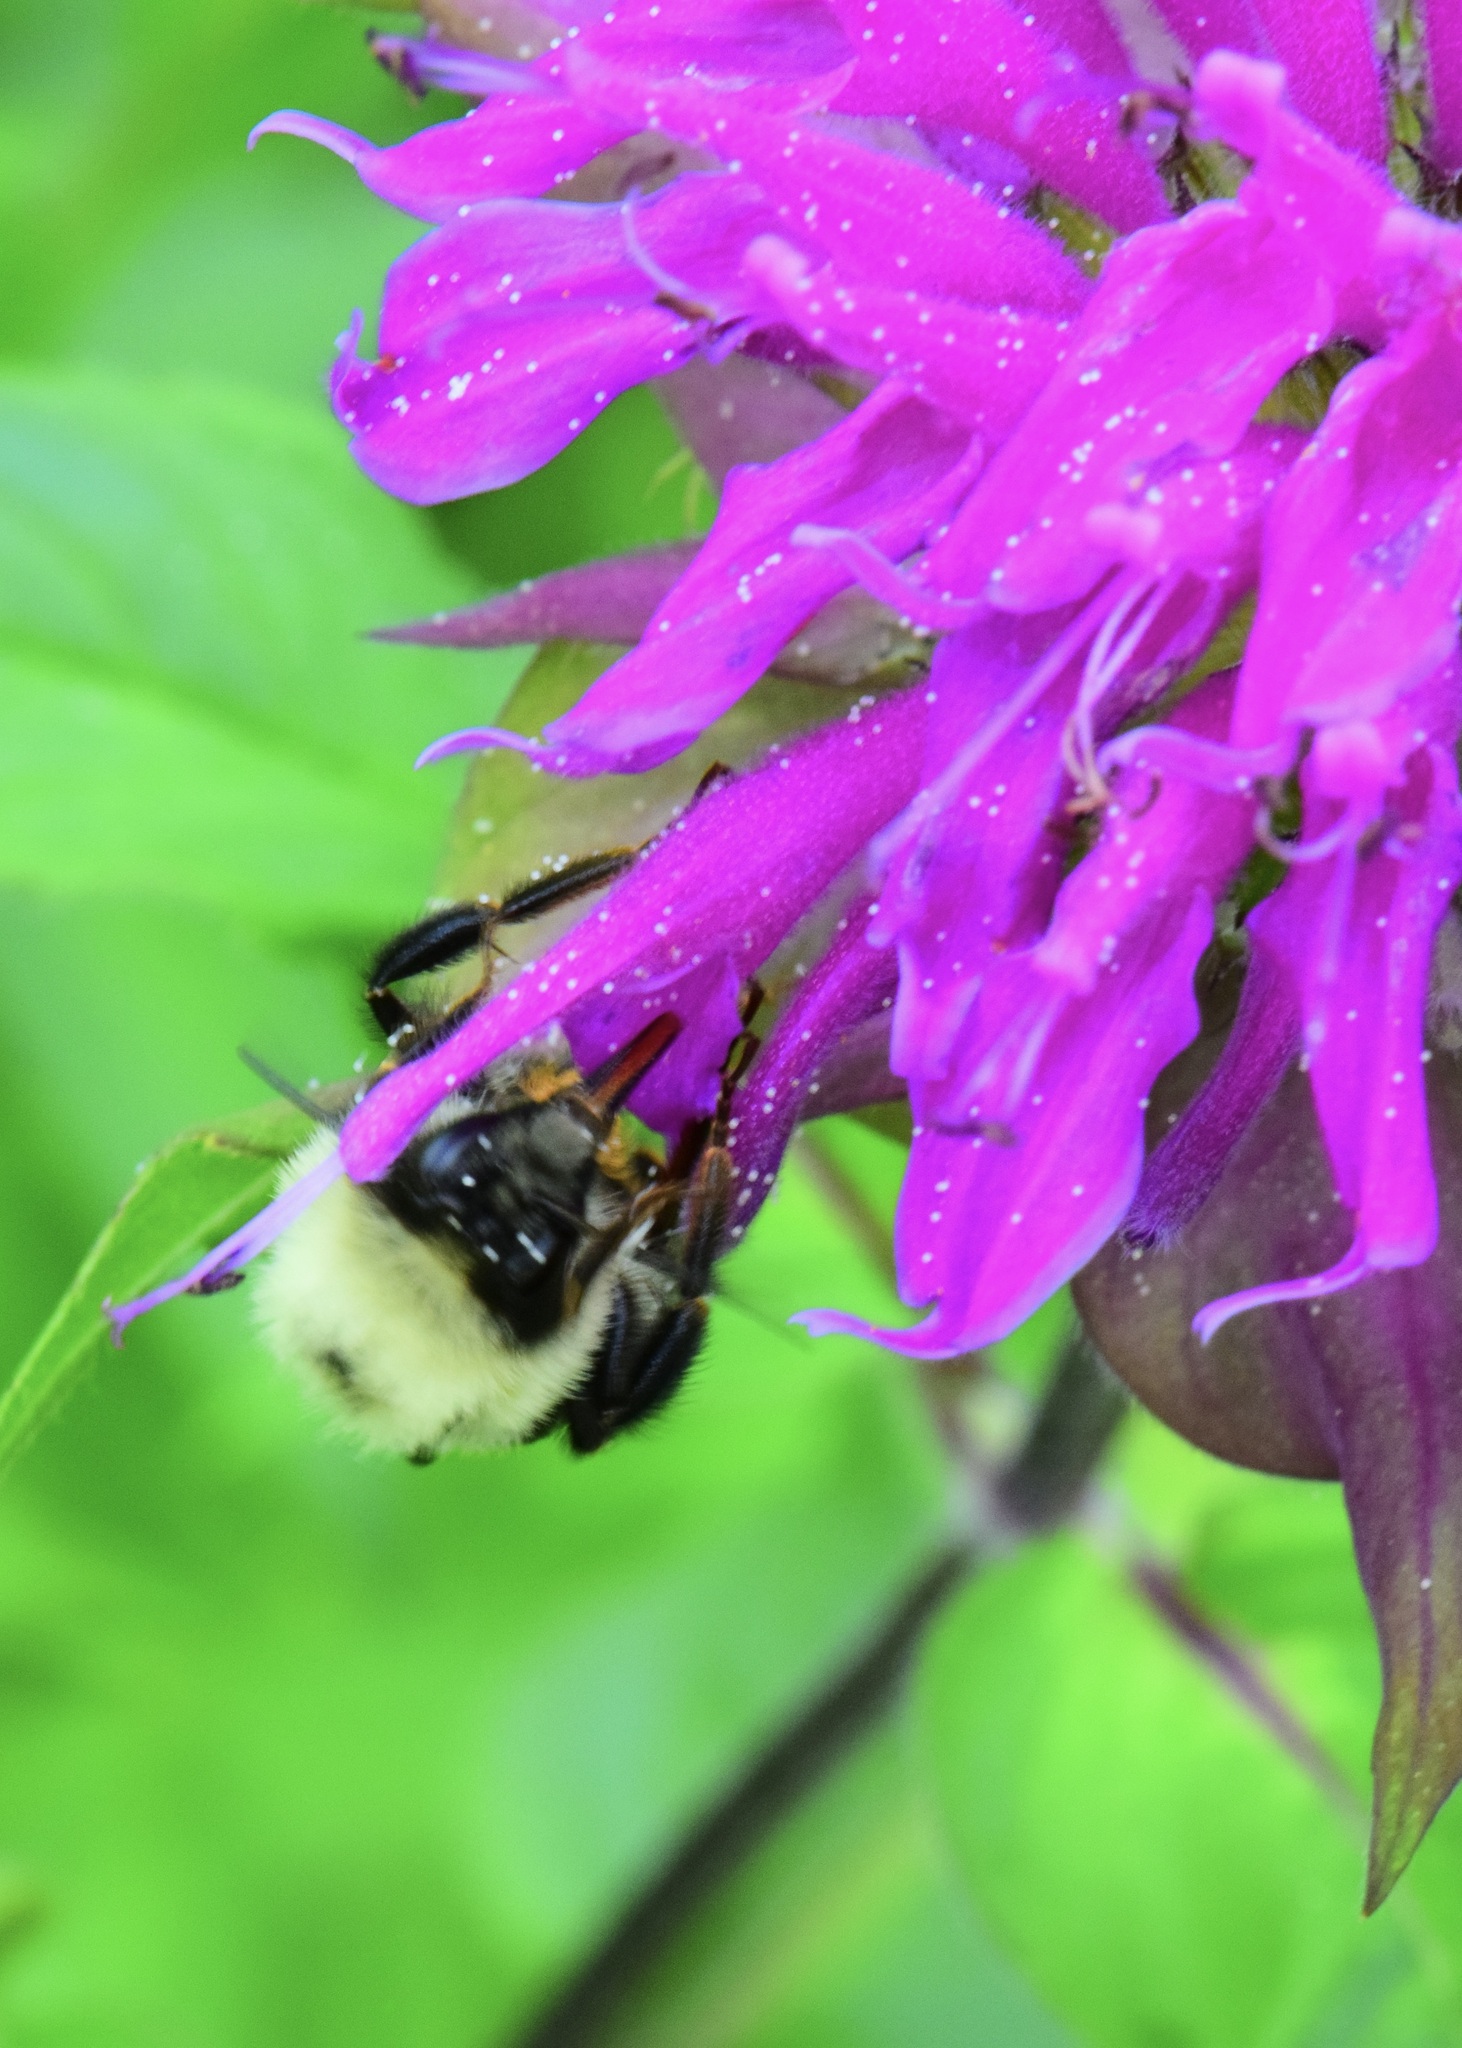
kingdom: Animalia
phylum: Arthropoda
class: Insecta
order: Hymenoptera
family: Apidae
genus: Bombus
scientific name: Bombus bimaculatus
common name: Two-spotted bumble bee
